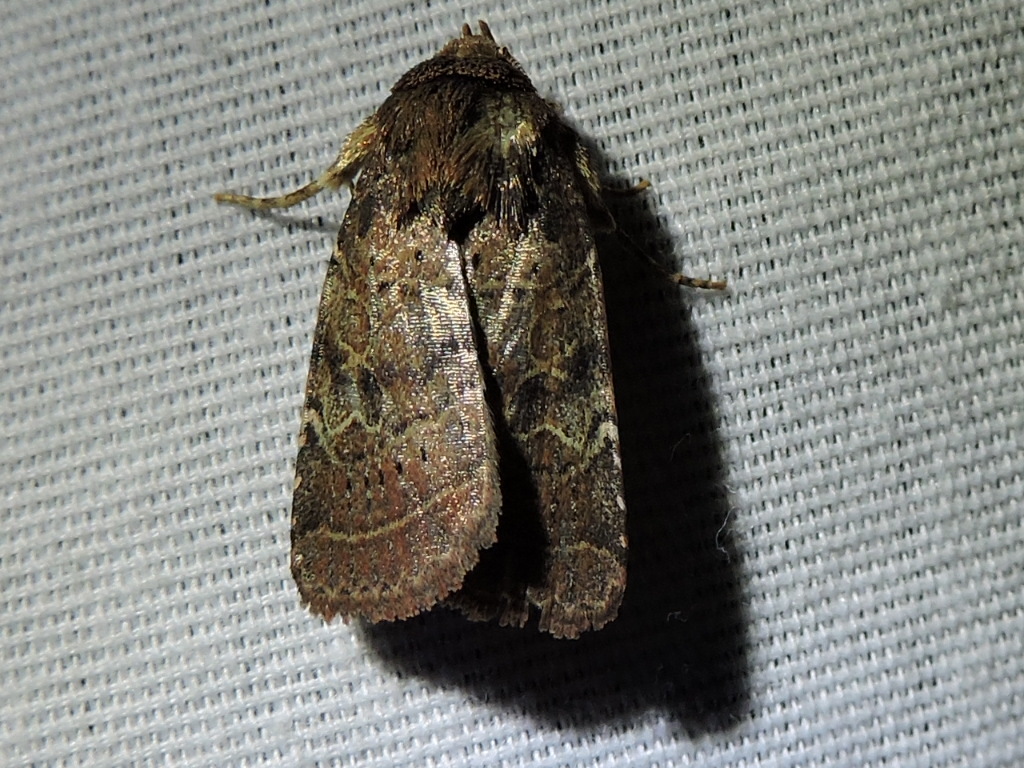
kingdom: Animalia
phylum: Arthropoda
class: Insecta
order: Lepidoptera
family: Noctuidae
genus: Orthodes
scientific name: Orthodes furtiva
